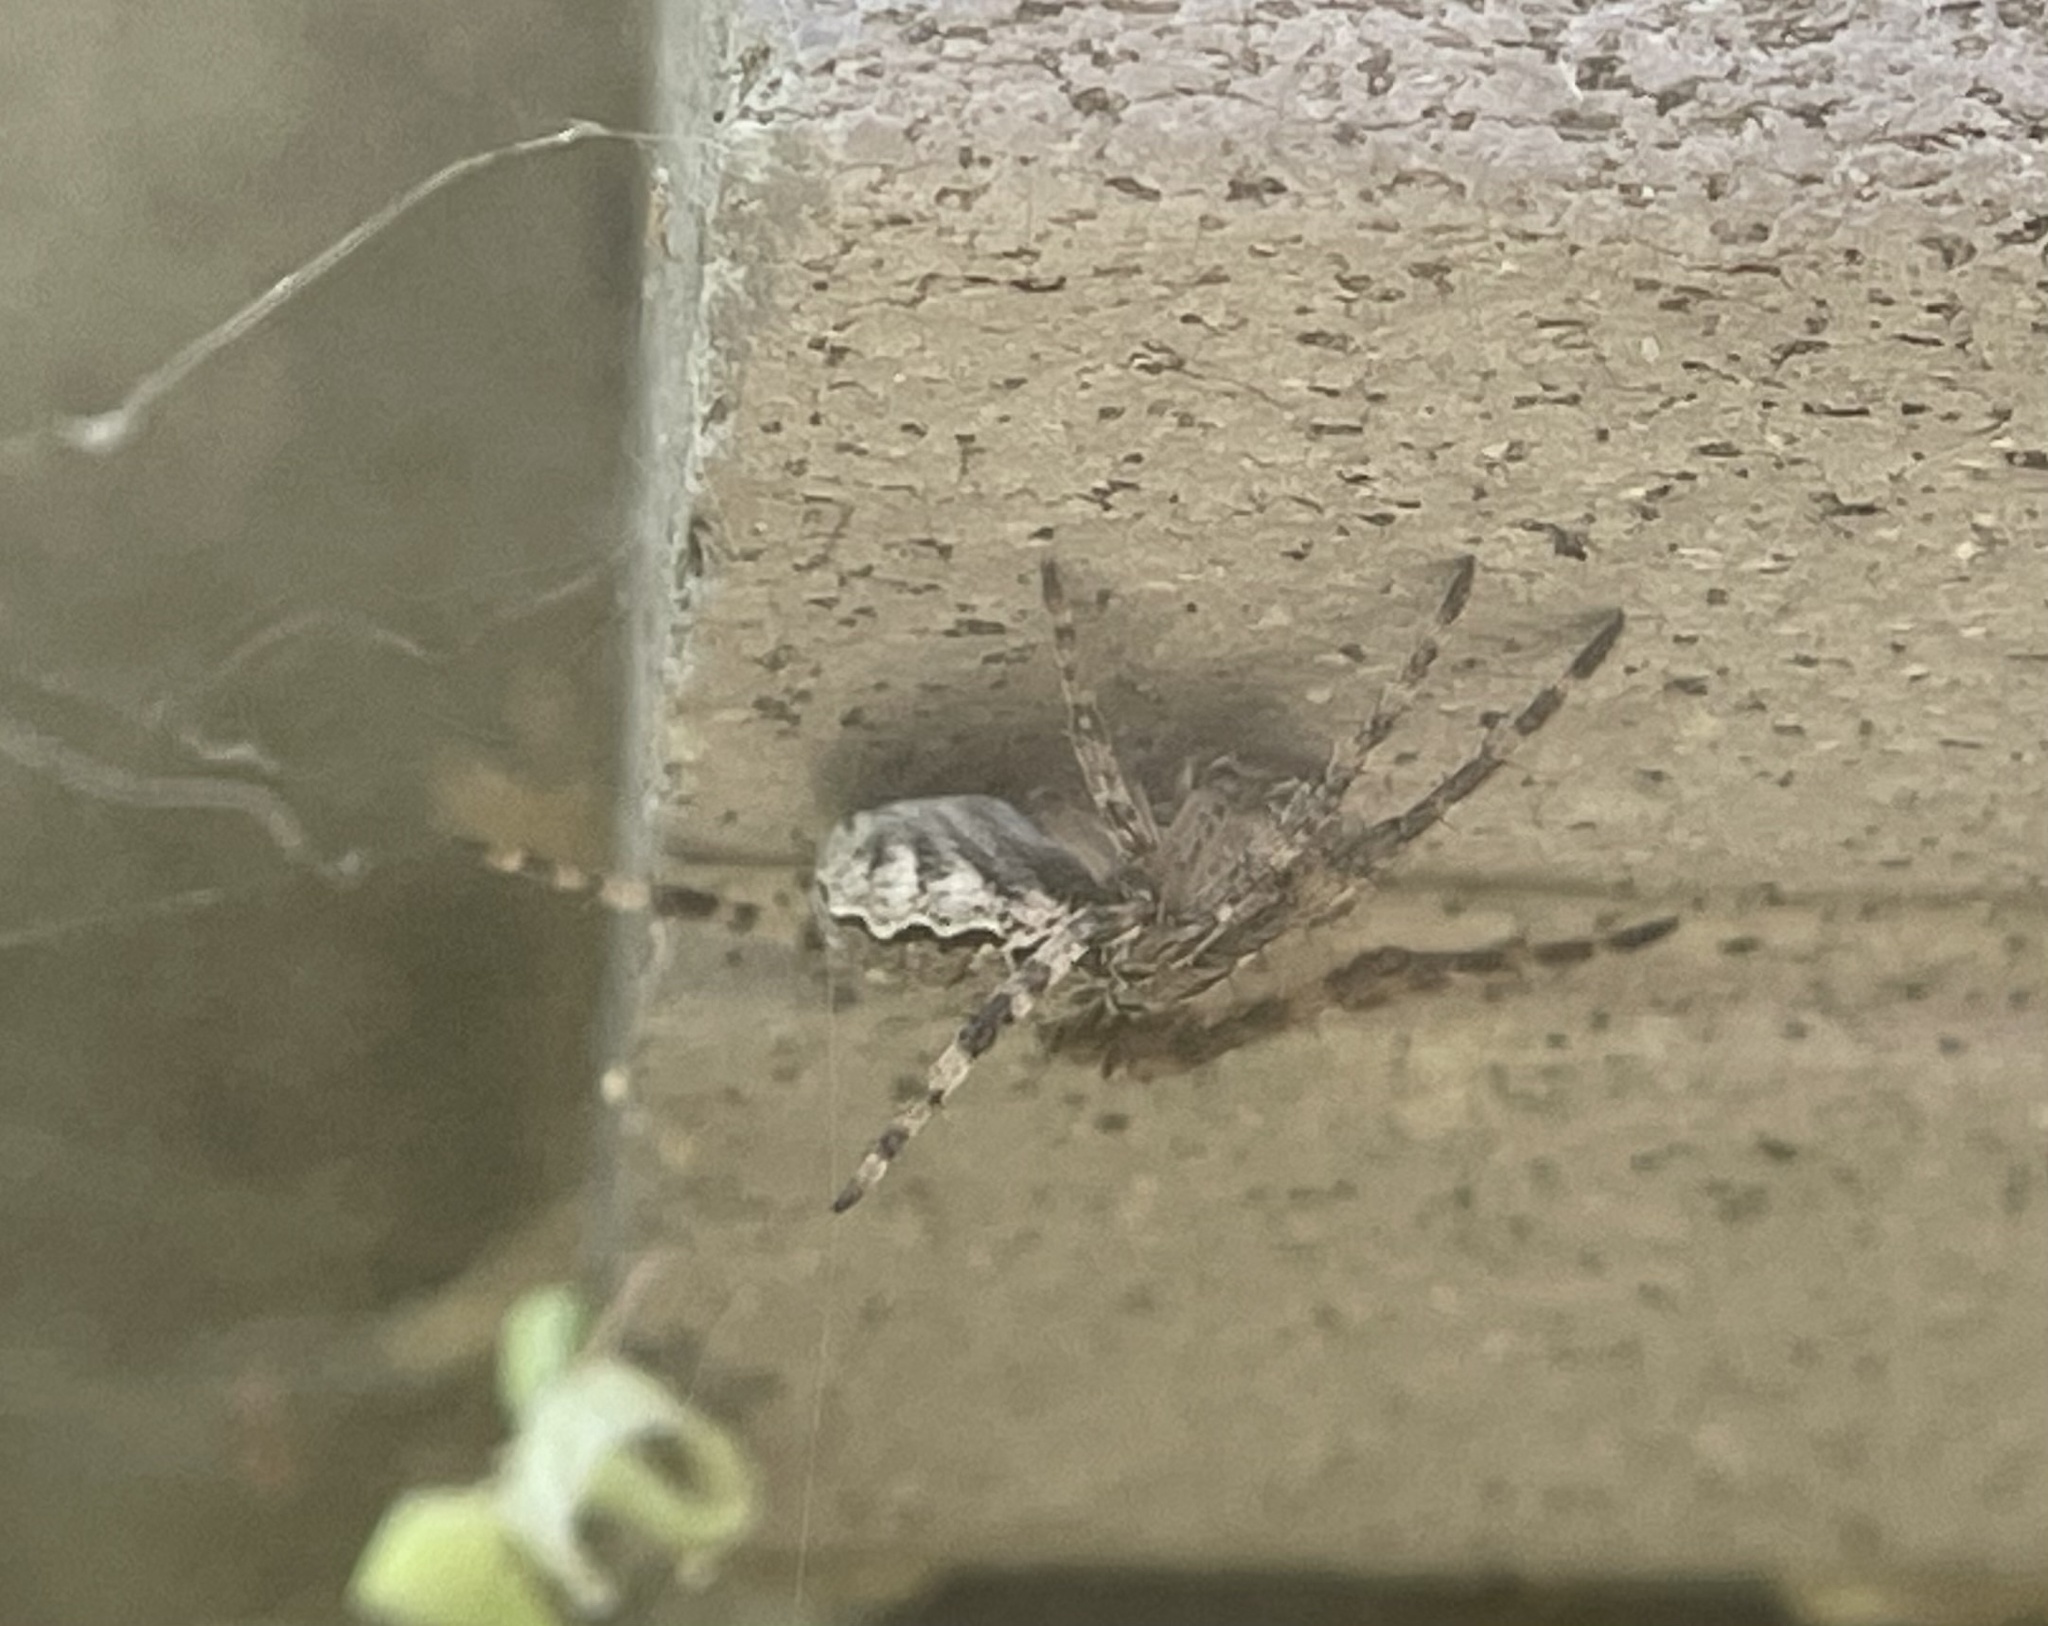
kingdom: Animalia
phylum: Arthropoda
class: Arachnida
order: Araneae
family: Araneidae
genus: Larinioides
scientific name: Larinioides sclopetarius
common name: Bridge orbweaver
